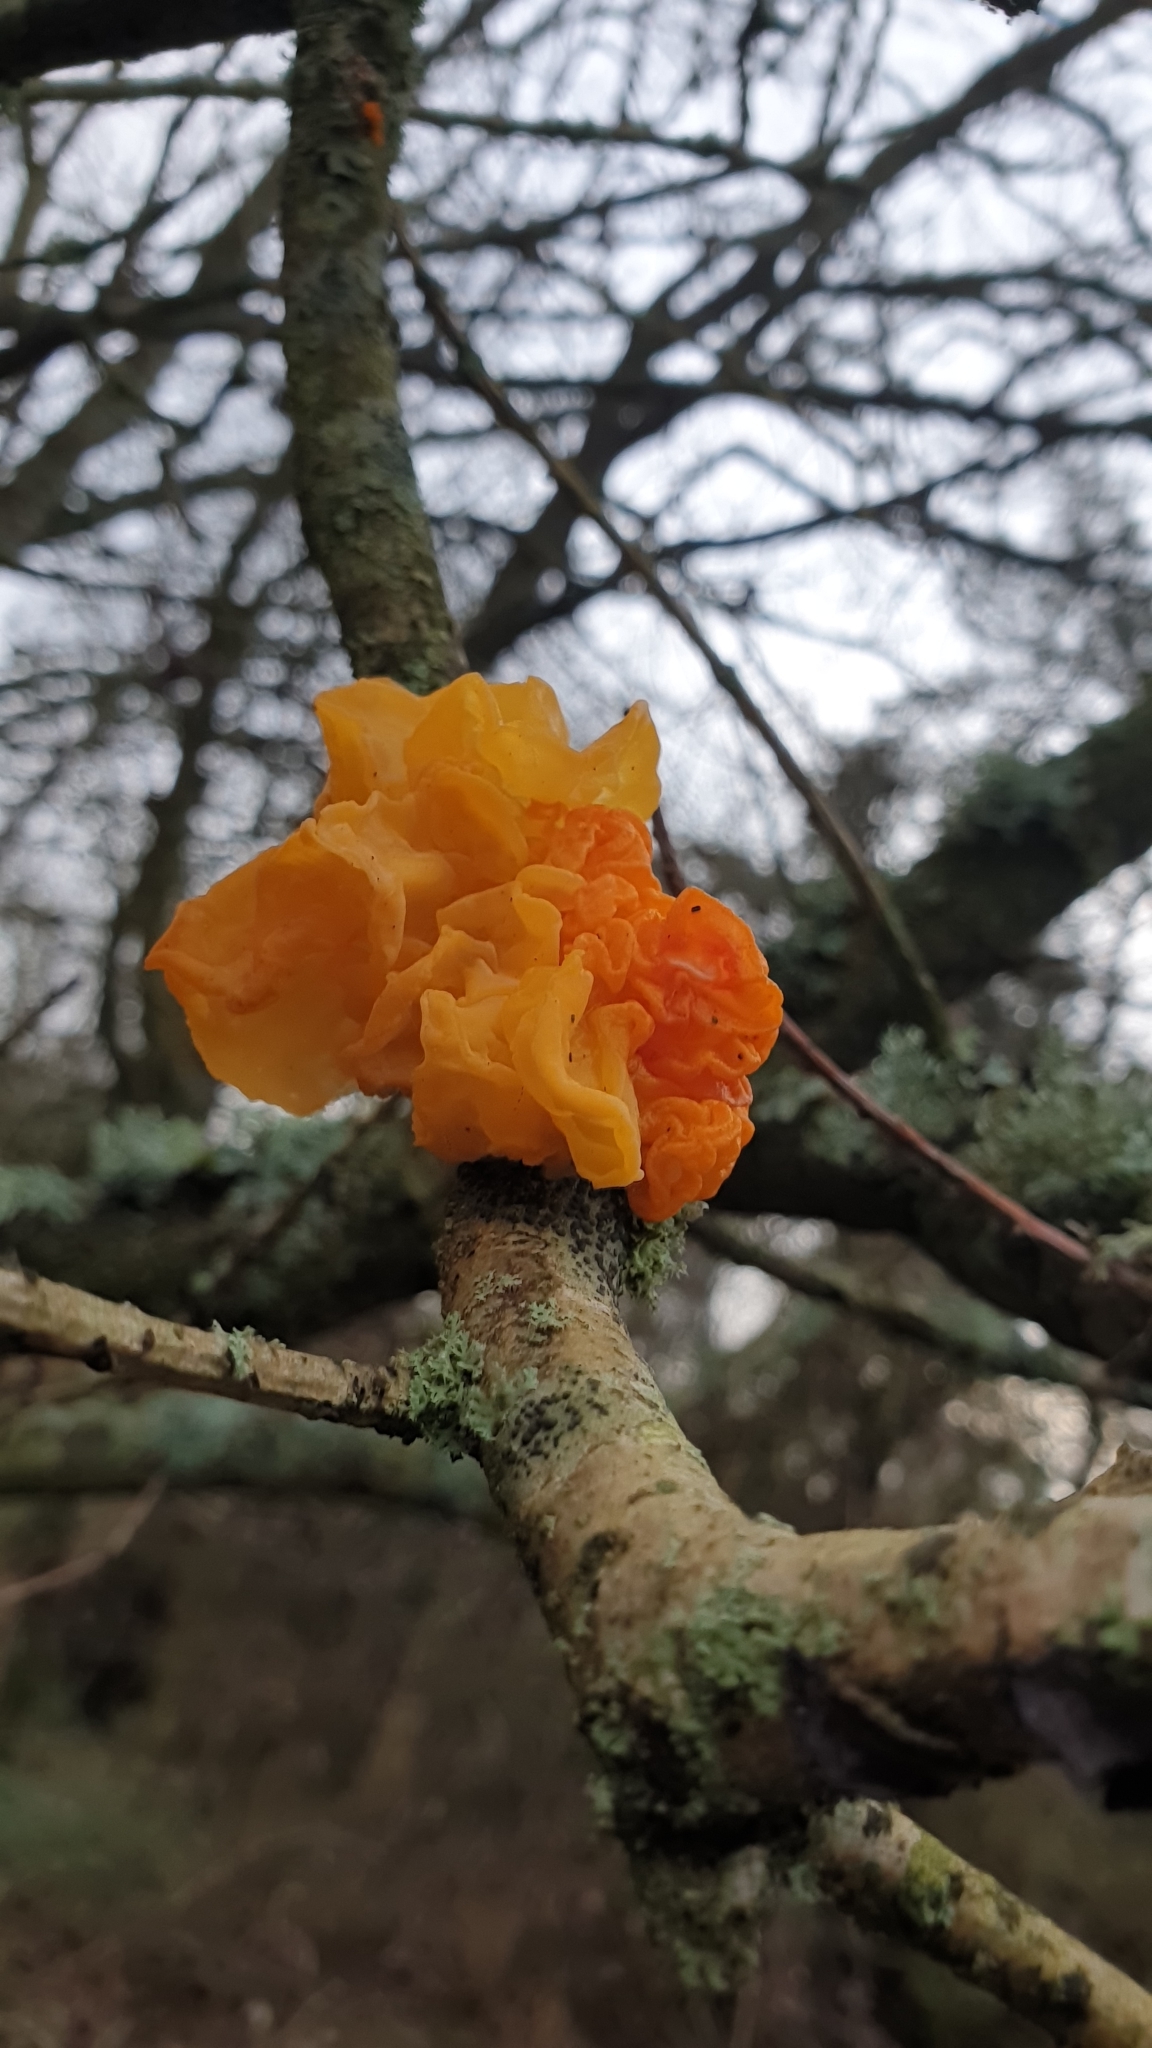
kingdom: Fungi
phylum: Basidiomycota
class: Tremellomycetes
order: Tremellales
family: Tremellaceae
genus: Tremella
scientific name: Tremella mesenterica
